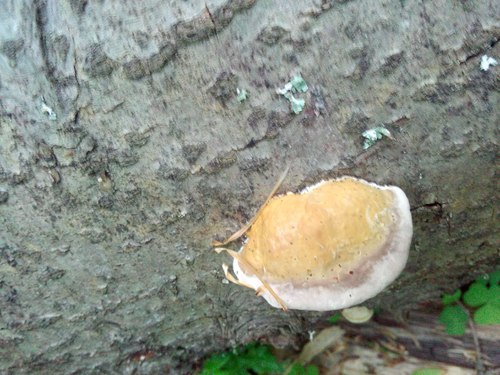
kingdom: Fungi
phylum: Basidiomycota
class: Agaricomycetes
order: Polyporales
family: Fomitopsidaceae
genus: Fomitopsis
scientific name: Fomitopsis pinicola
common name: Red-belted bracket
